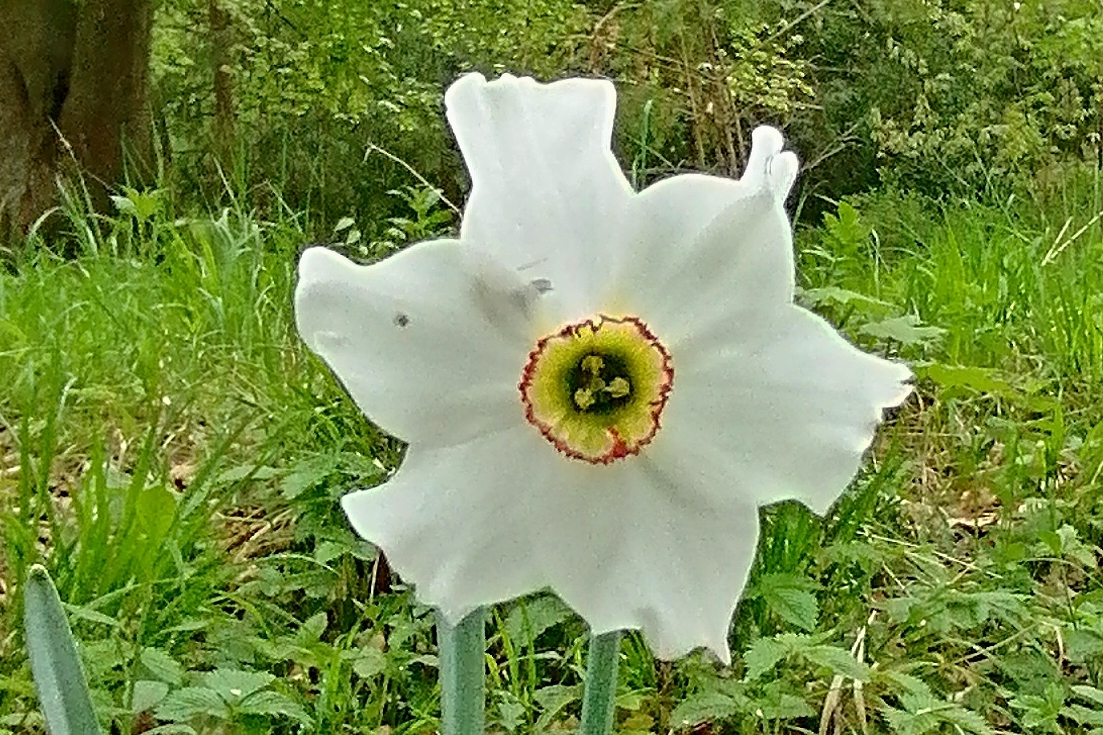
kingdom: Plantae
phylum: Tracheophyta
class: Liliopsida
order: Asparagales
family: Amaryllidaceae
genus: Narcissus
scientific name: Narcissus poeticus
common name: Pheasant's-eye daffodil
